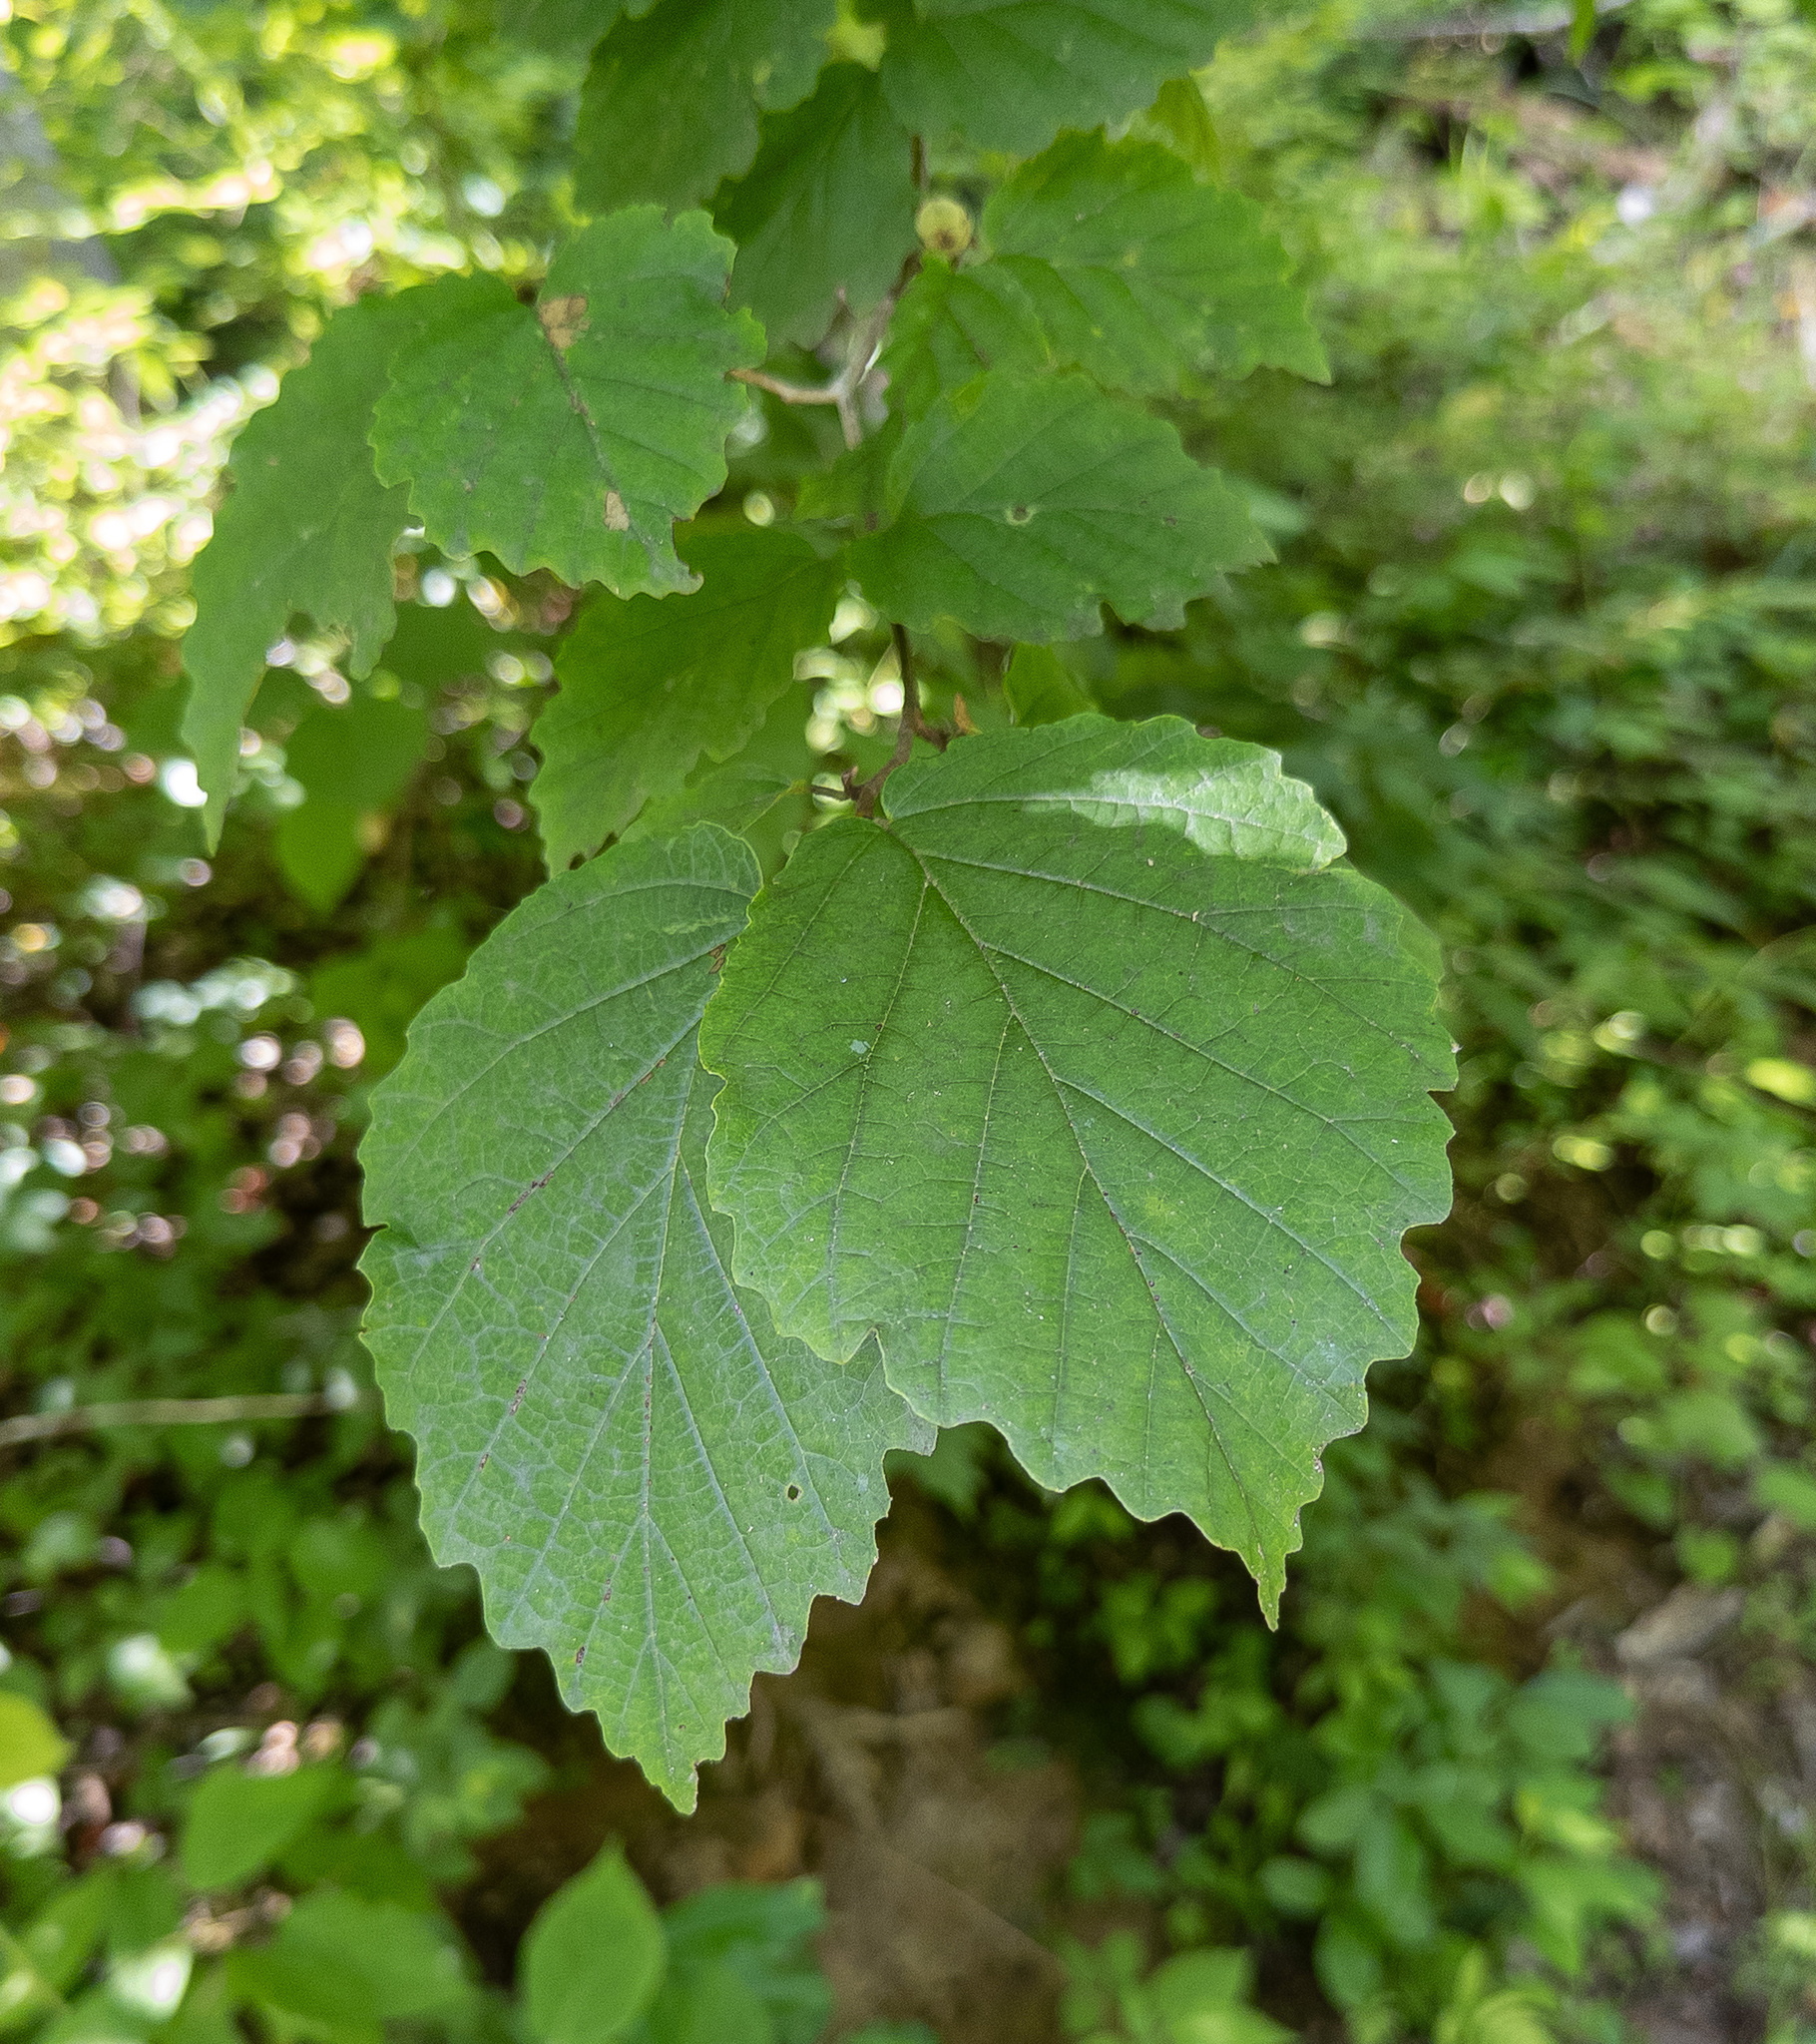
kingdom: Plantae
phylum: Tracheophyta
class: Magnoliopsida
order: Saxifragales
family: Hamamelidaceae
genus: Hamamelis
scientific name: Hamamelis virginiana
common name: Witch-hazel
